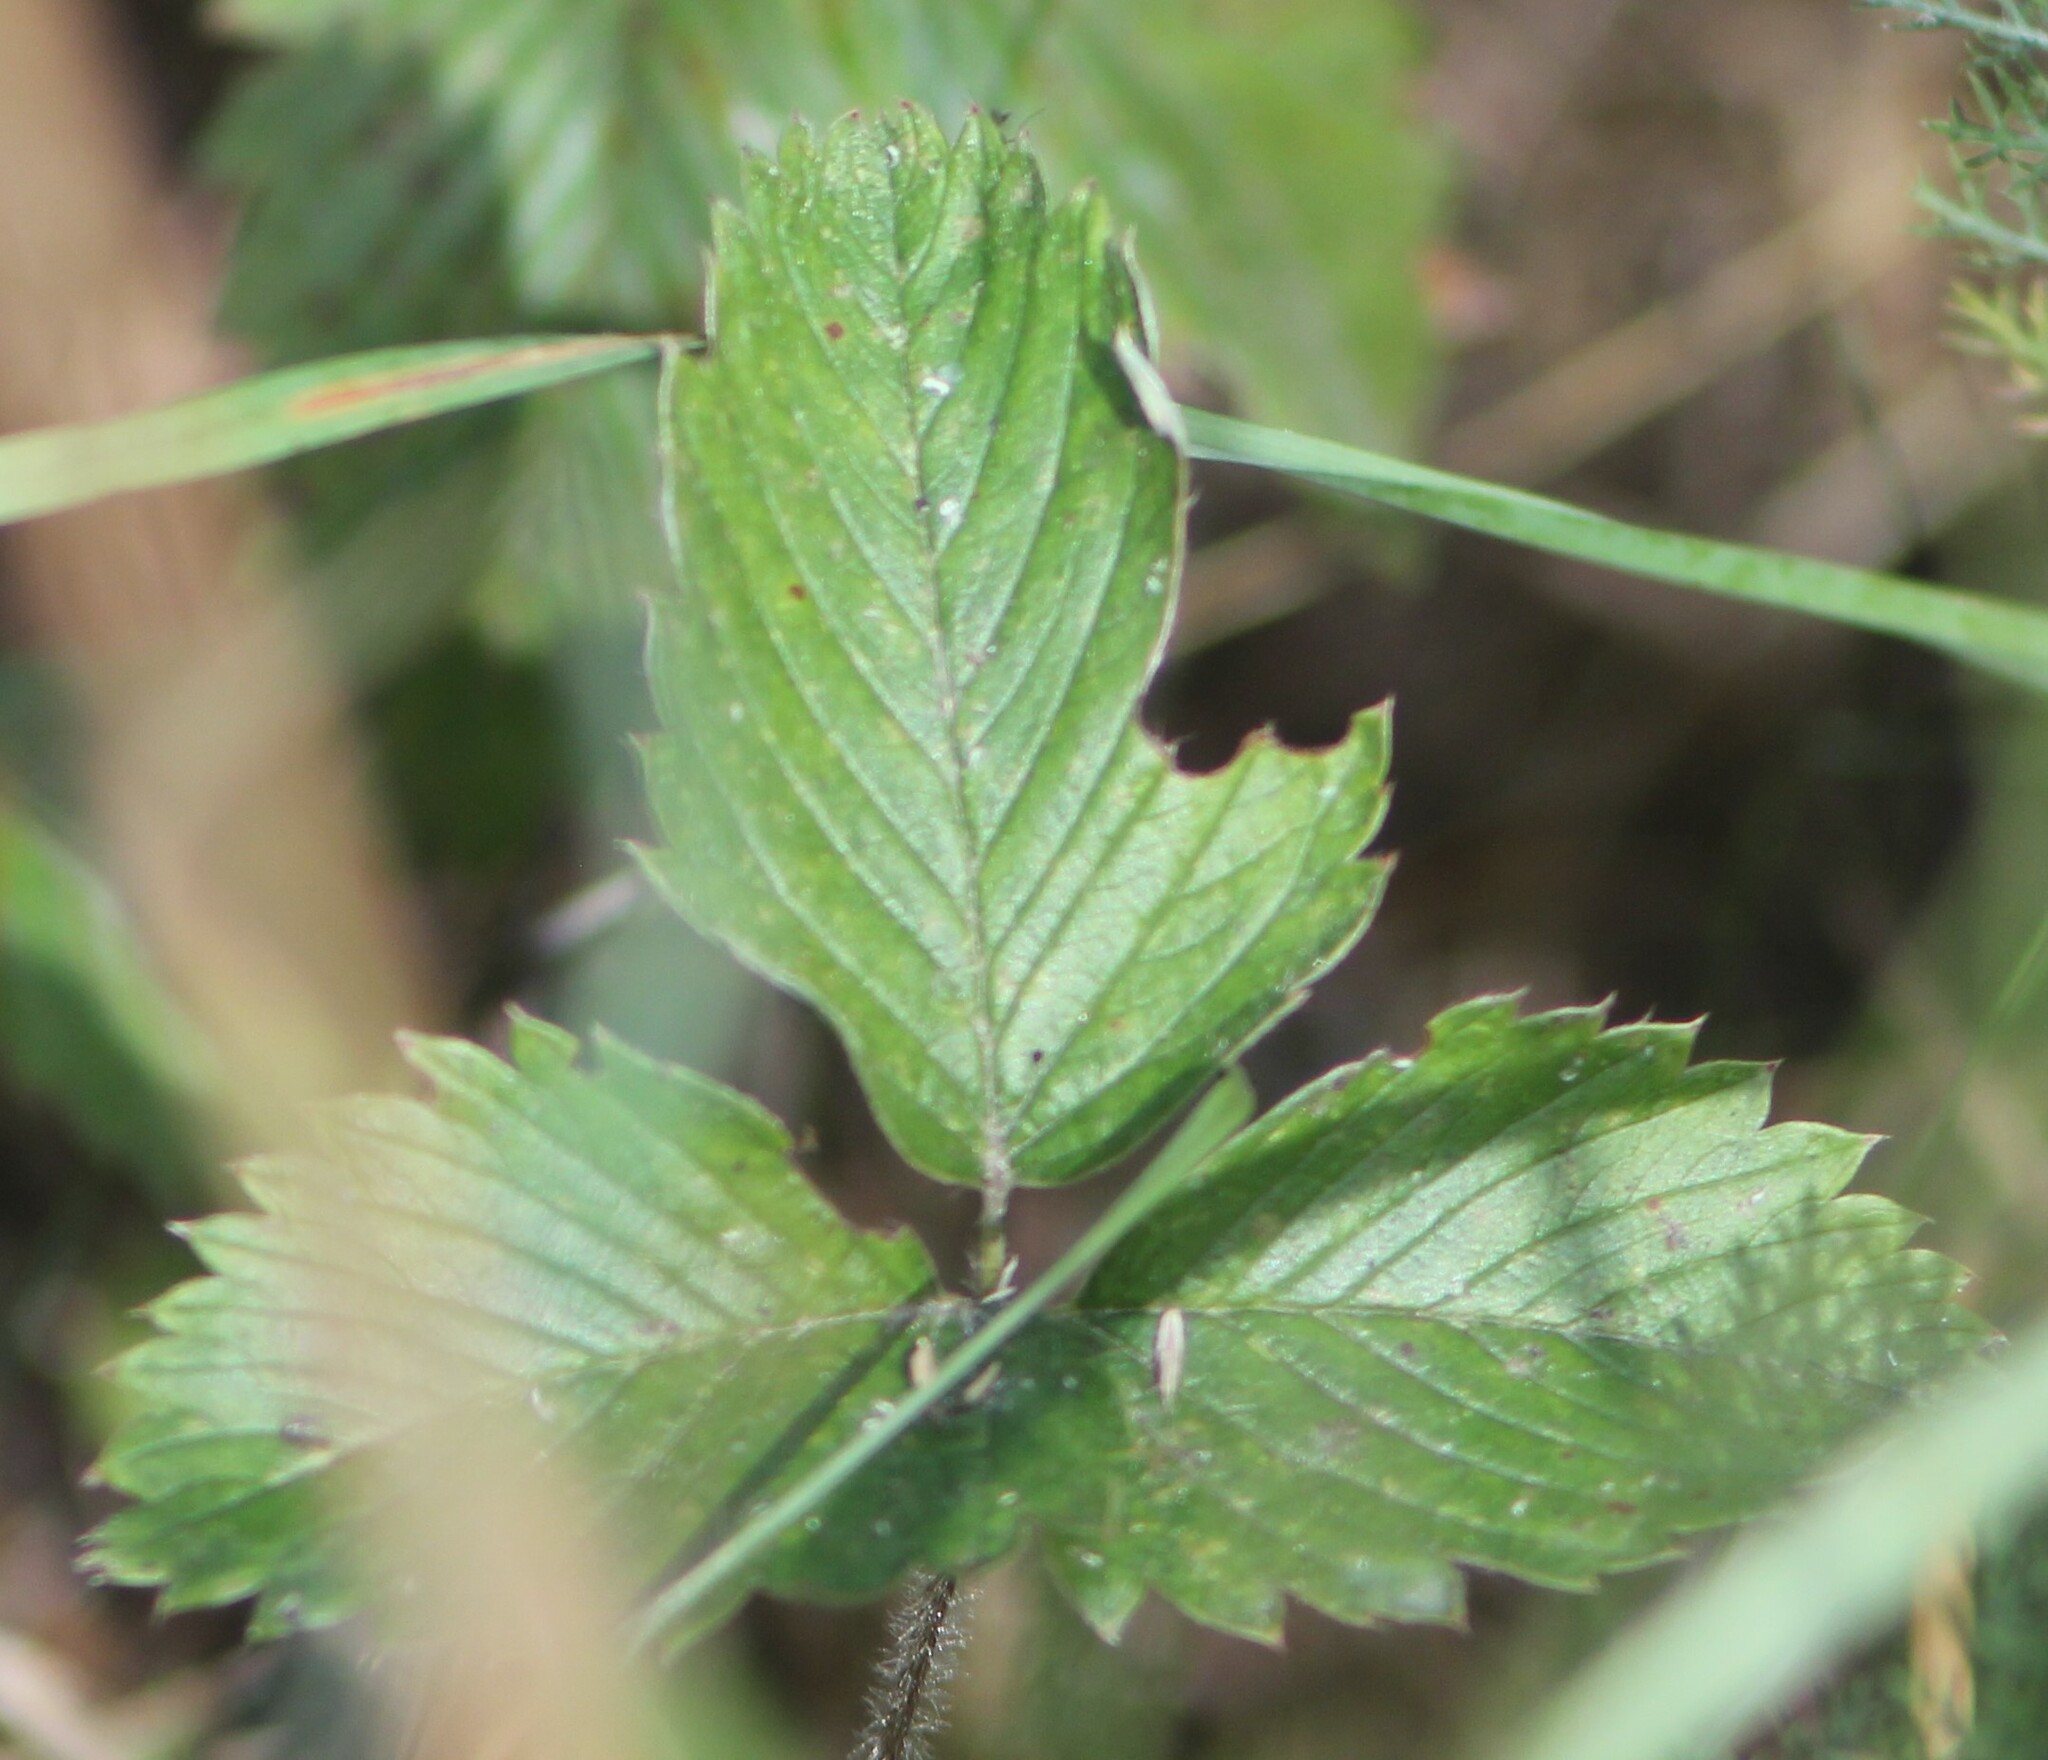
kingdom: Plantae
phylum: Tracheophyta
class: Magnoliopsida
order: Rosales
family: Rosaceae
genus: Fragaria
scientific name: Fragaria viridis
